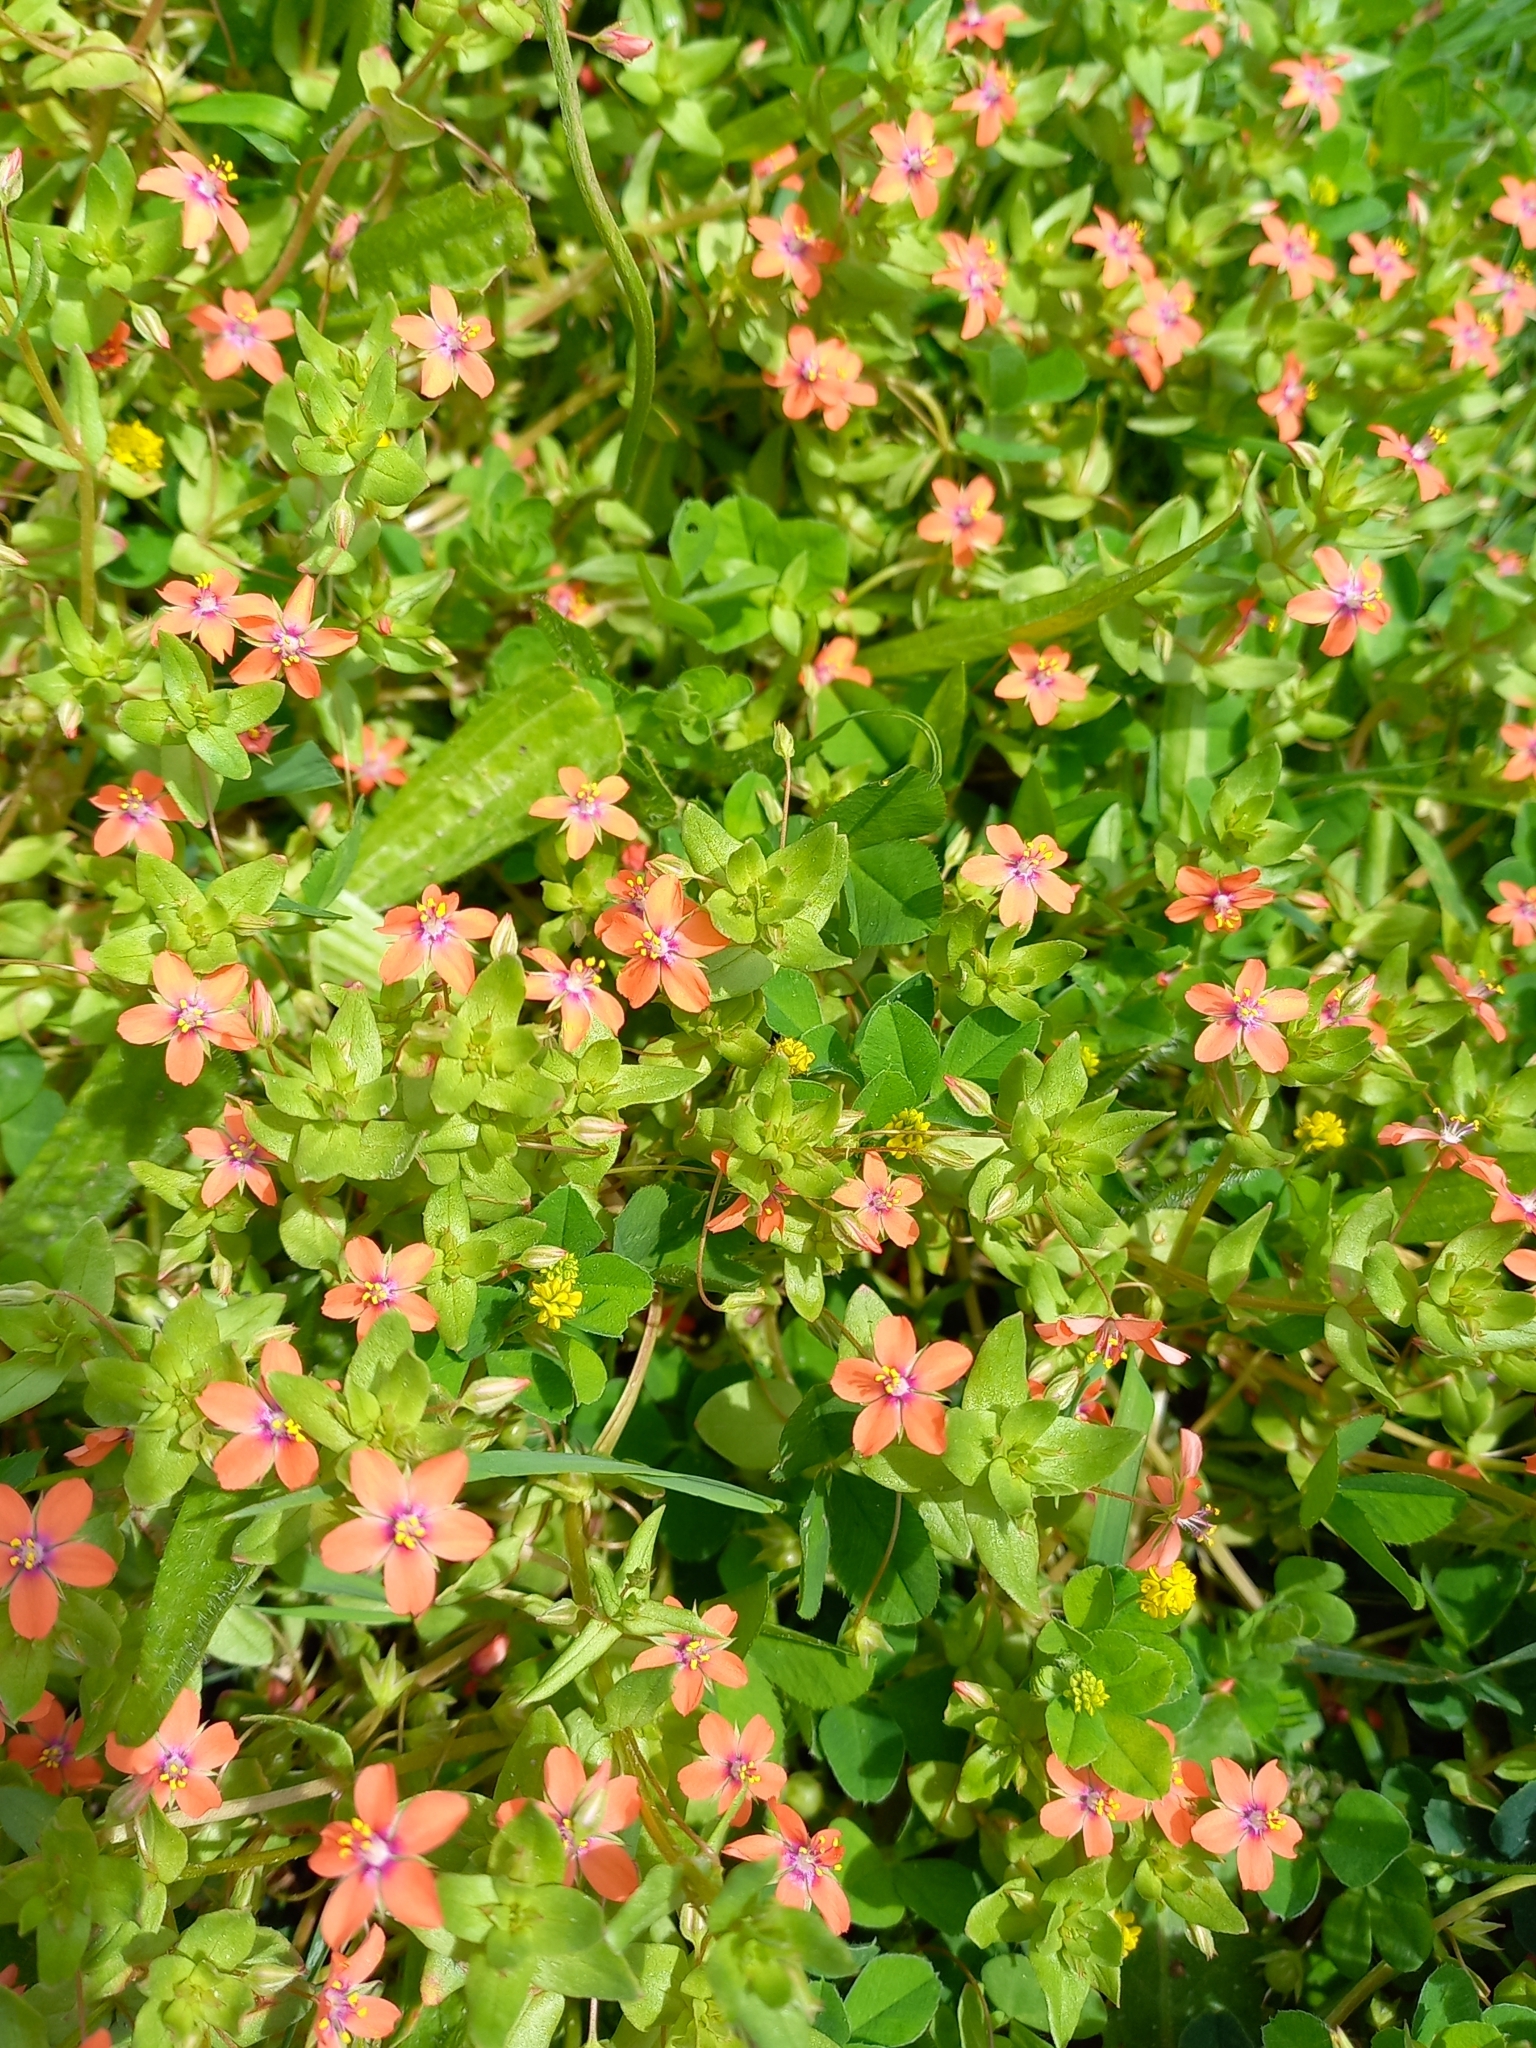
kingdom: Plantae
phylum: Tracheophyta
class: Magnoliopsida
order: Ericales
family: Primulaceae
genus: Lysimachia
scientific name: Lysimachia arvensis
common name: Scarlet pimpernel
